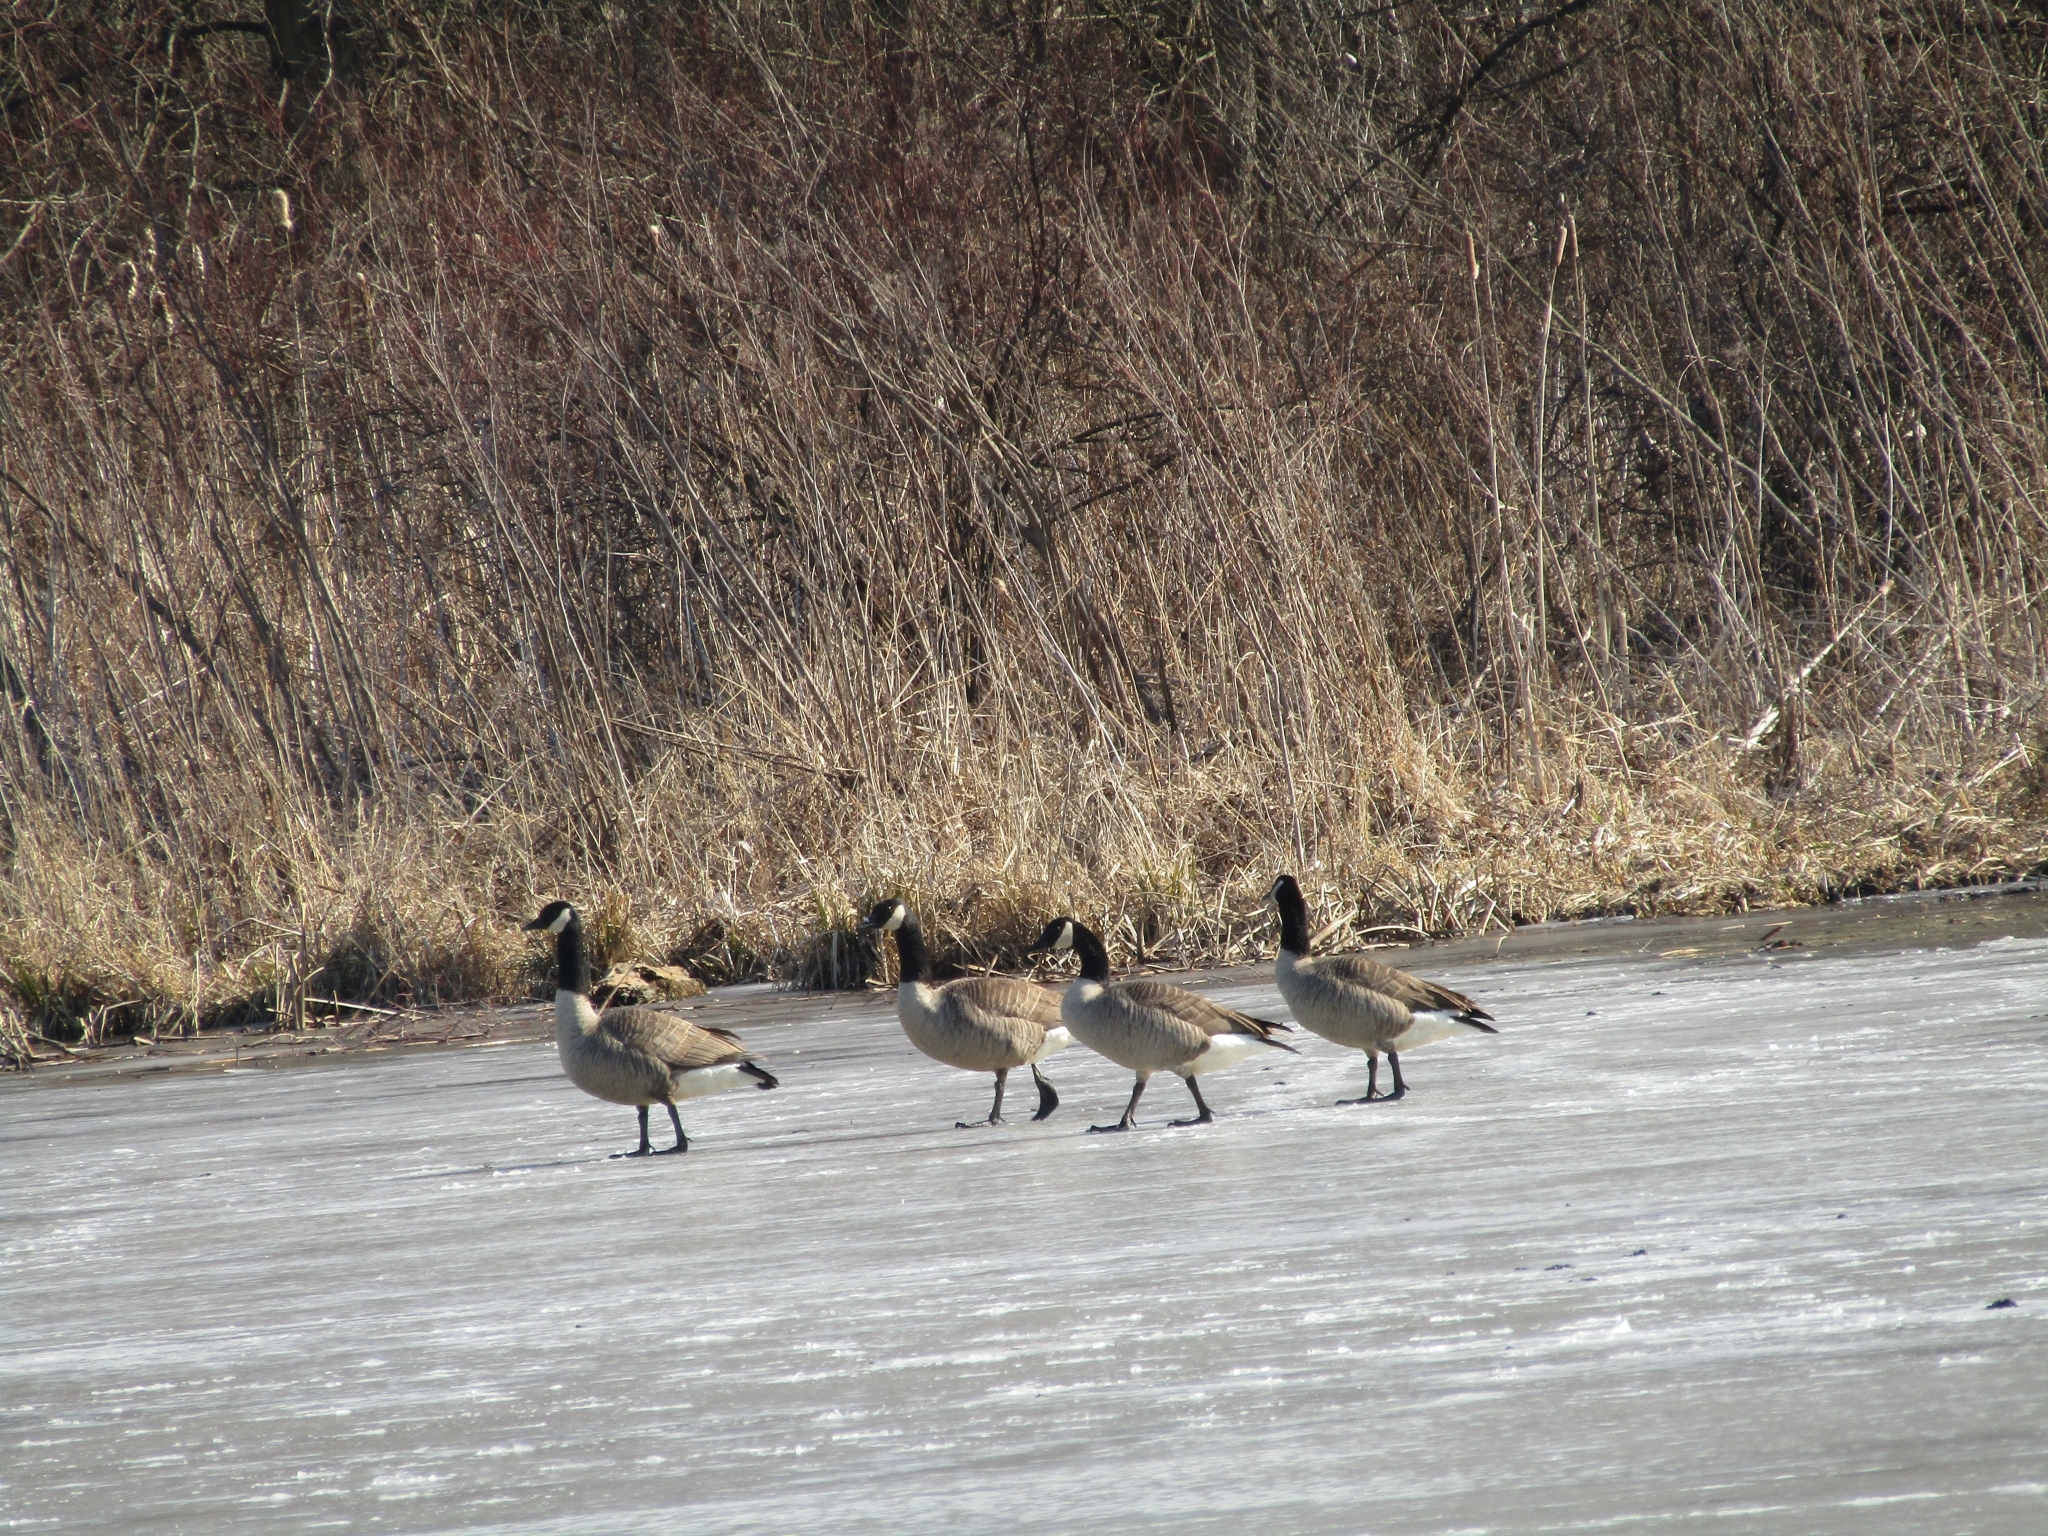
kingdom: Animalia
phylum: Chordata
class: Aves
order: Anseriformes
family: Anatidae
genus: Branta
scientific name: Branta canadensis
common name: Canada goose
